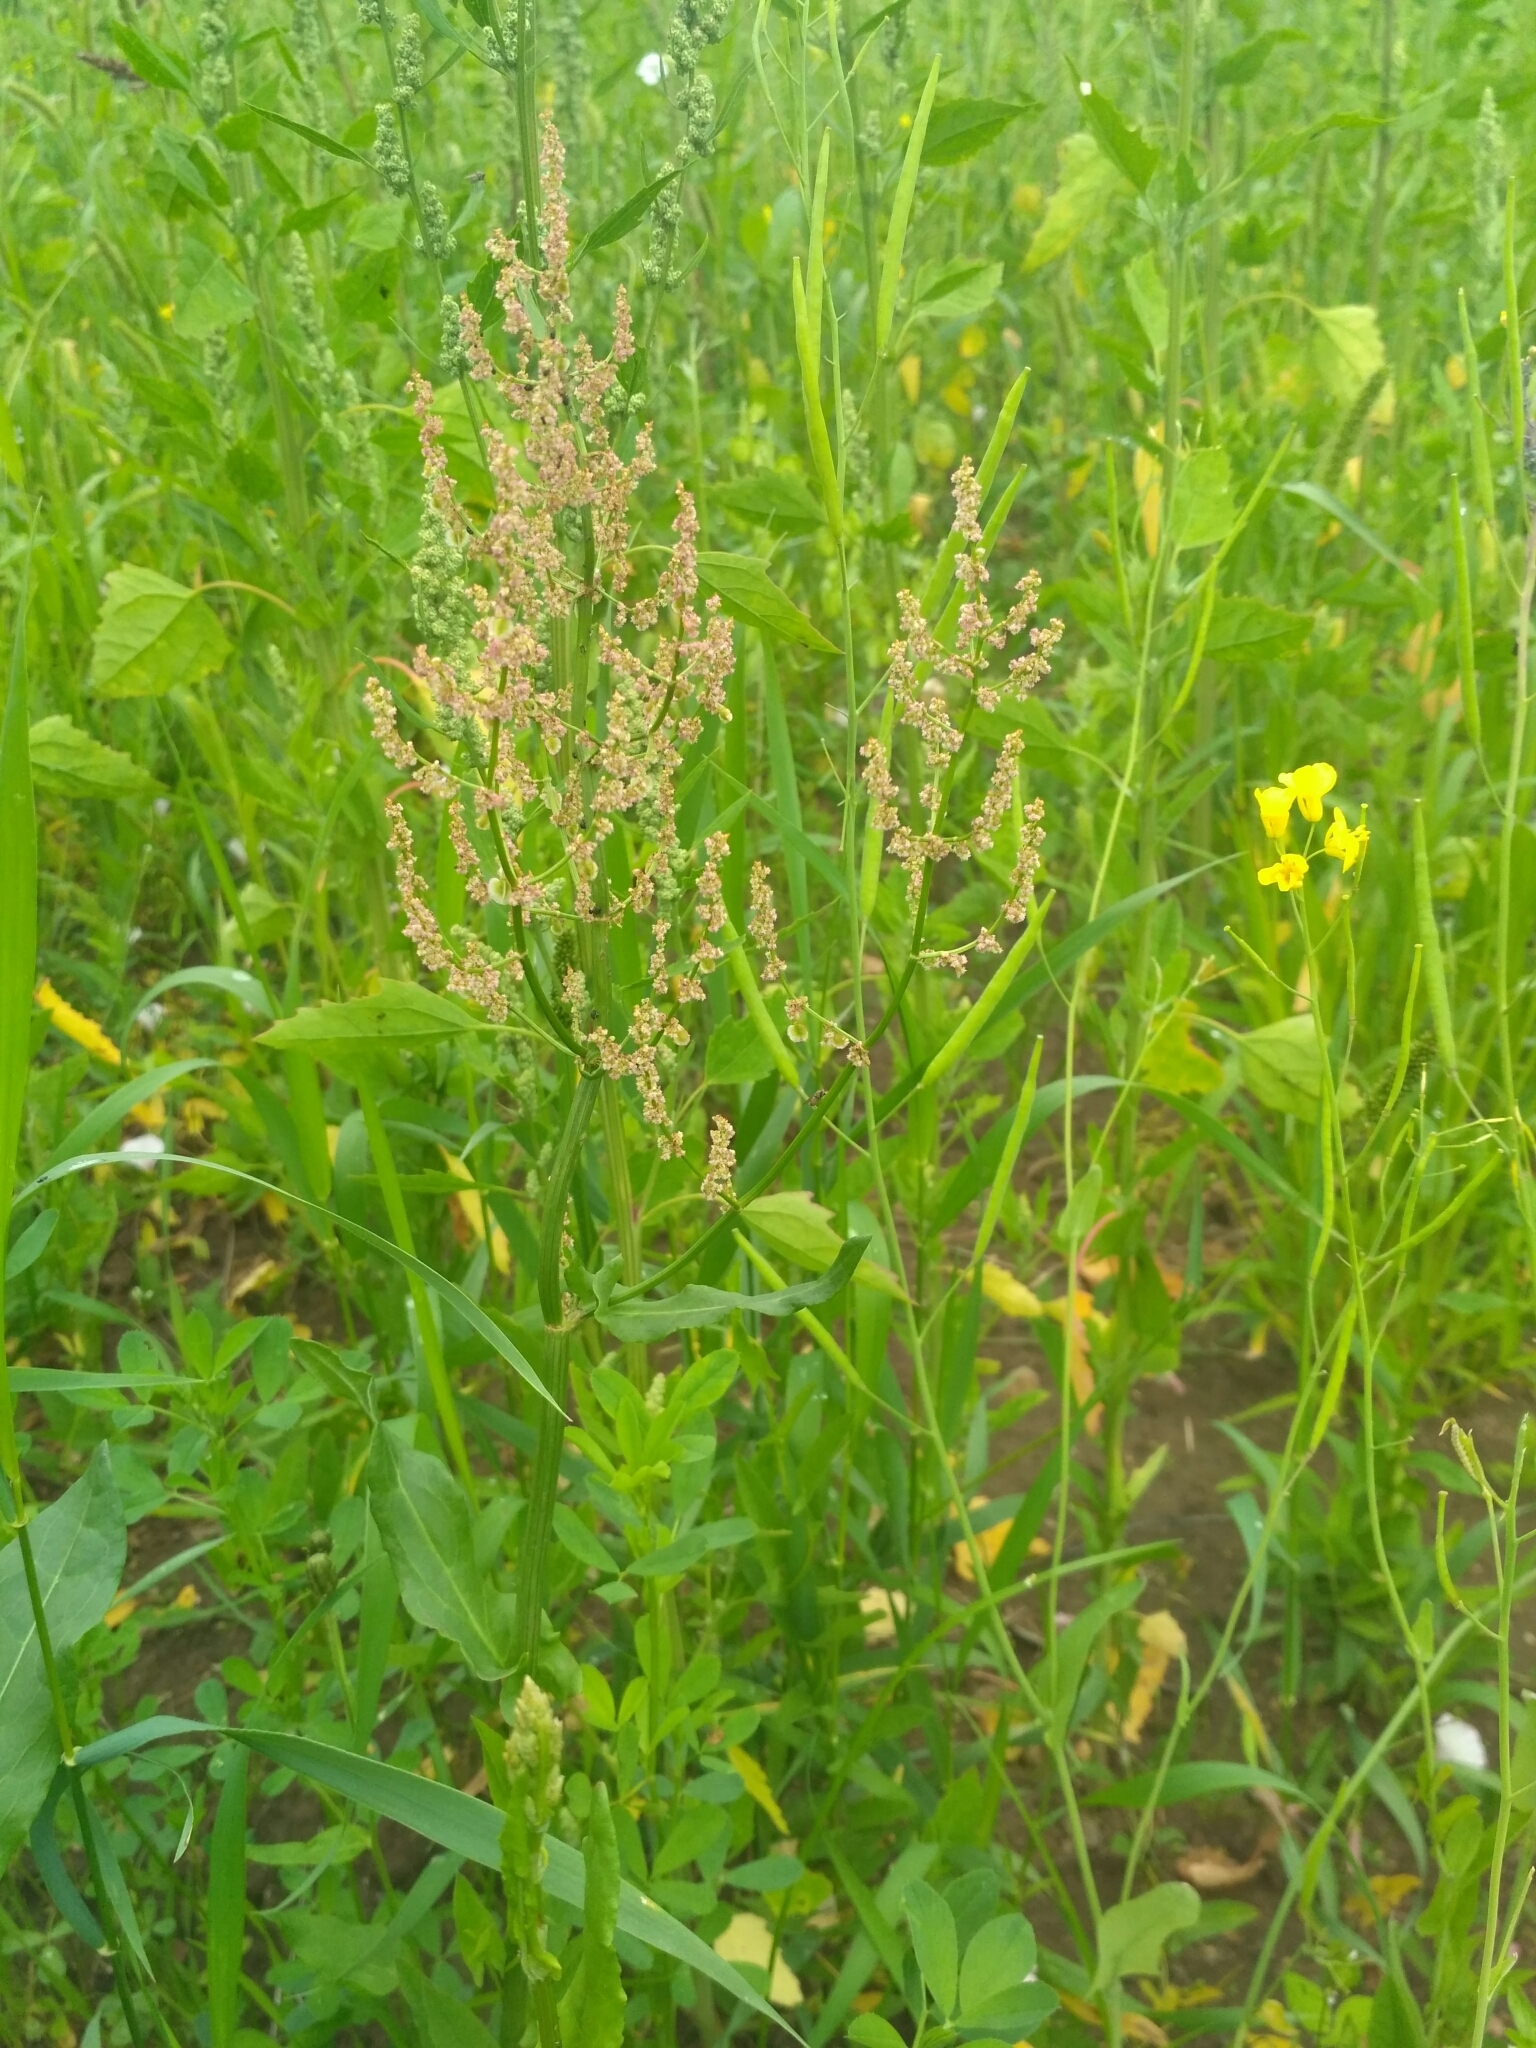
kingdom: Plantae
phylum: Tracheophyta
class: Magnoliopsida
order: Caryophyllales
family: Polygonaceae
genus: Rumex
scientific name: Rumex thyrsiflorus
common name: Garden sorrel
